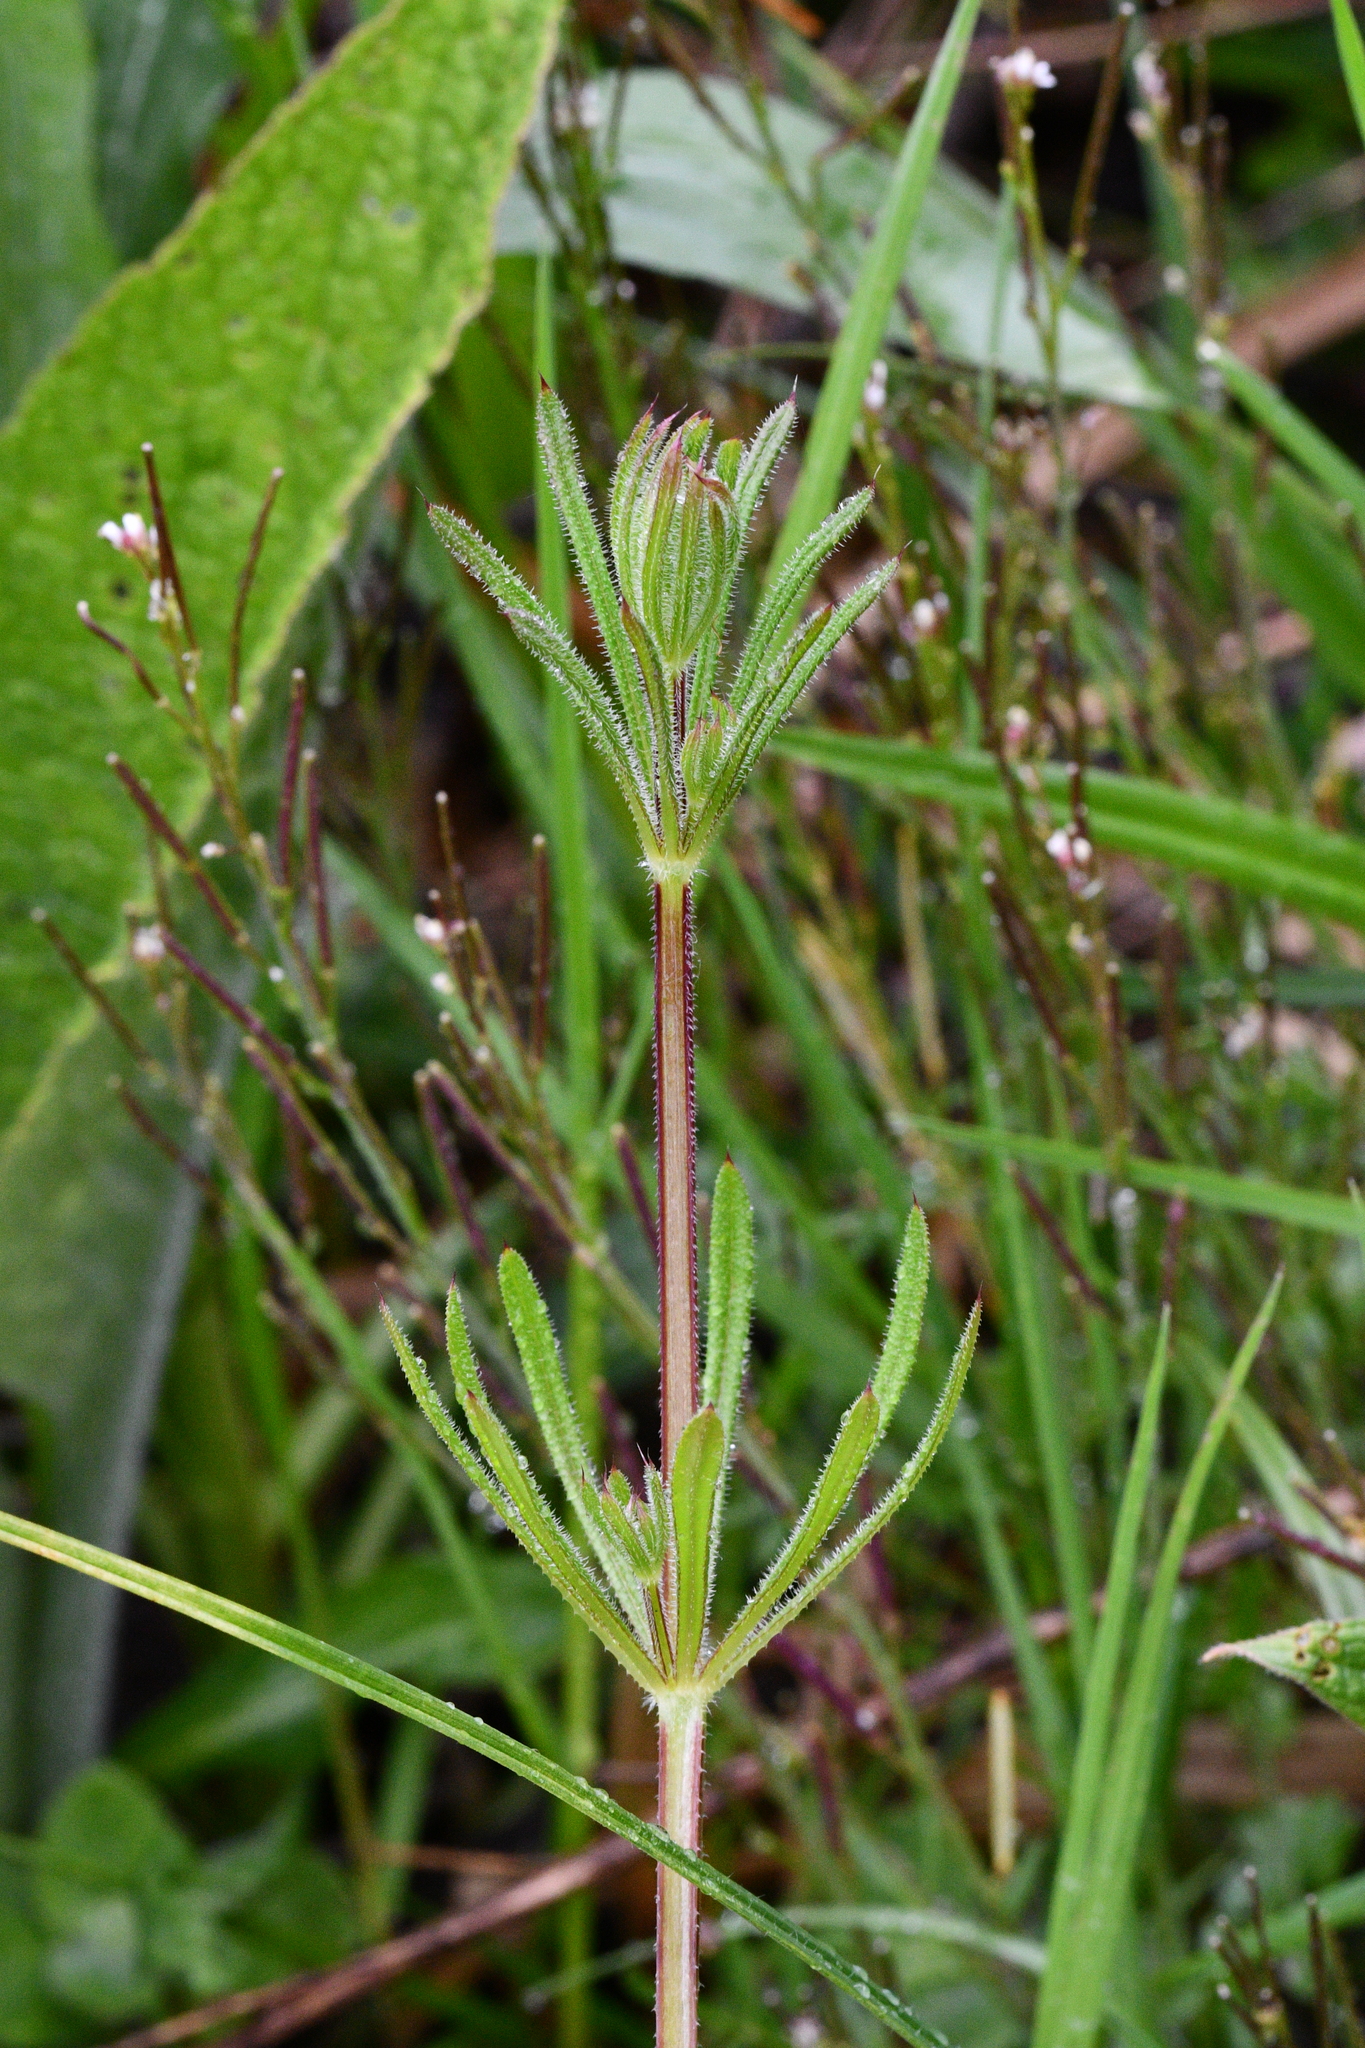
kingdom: Plantae
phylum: Tracheophyta
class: Magnoliopsida
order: Gentianales
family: Rubiaceae
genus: Galium
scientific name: Galium aparine
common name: Cleavers
